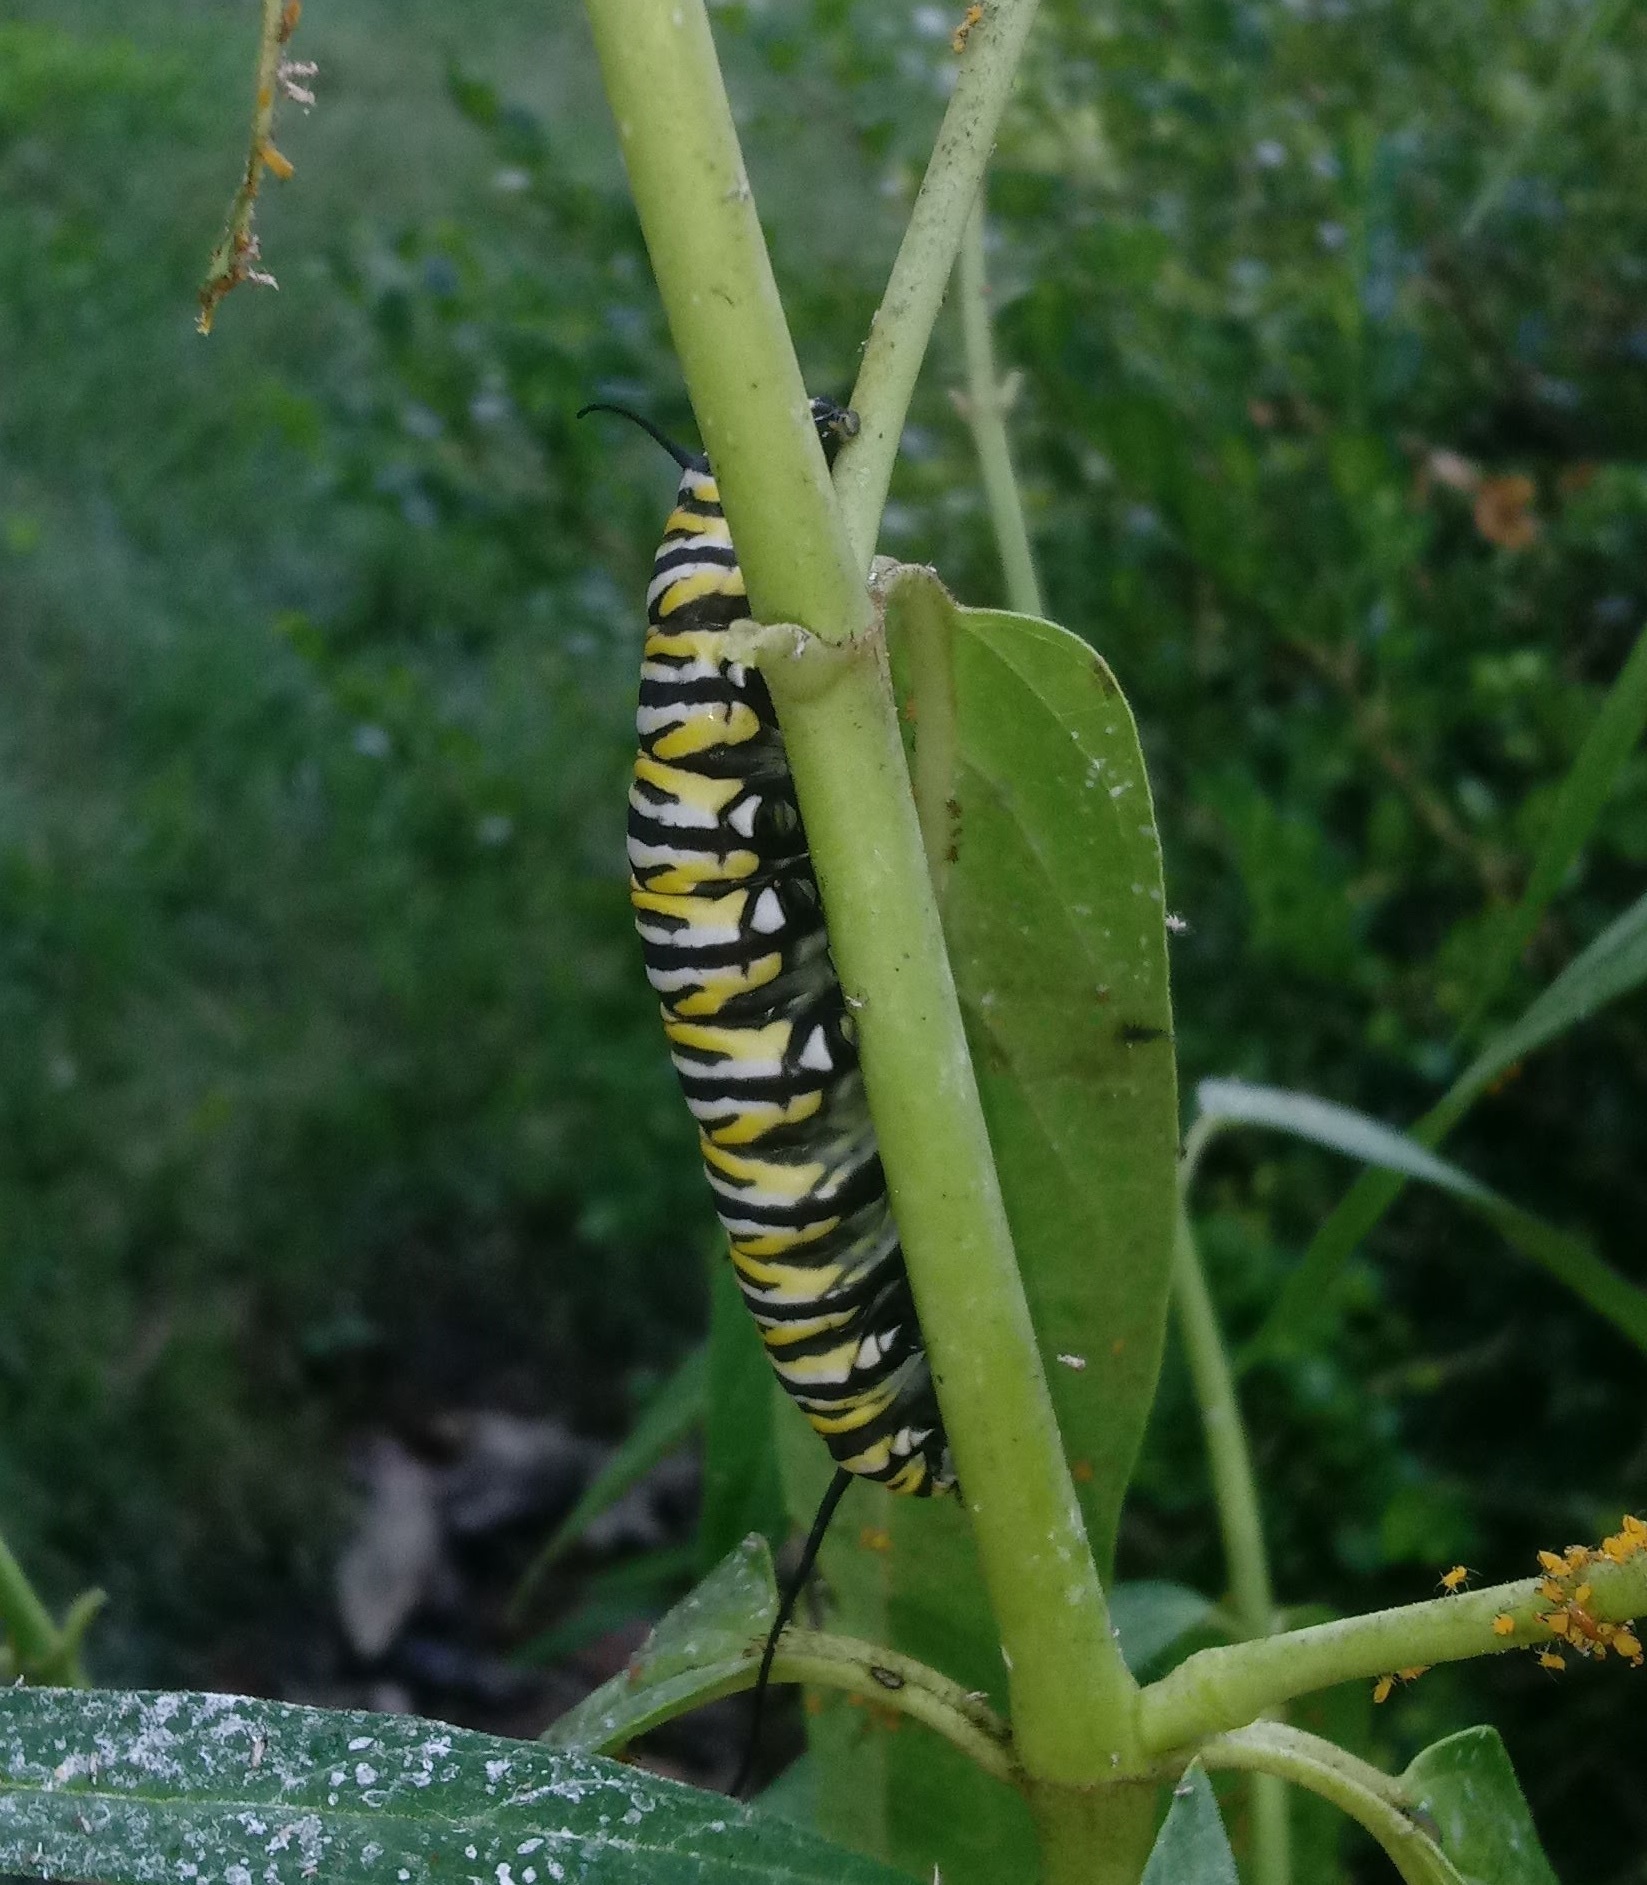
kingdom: Animalia
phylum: Arthropoda
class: Insecta
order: Lepidoptera
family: Nymphalidae
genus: Danaus
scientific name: Danaus plexippus
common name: Monarch
